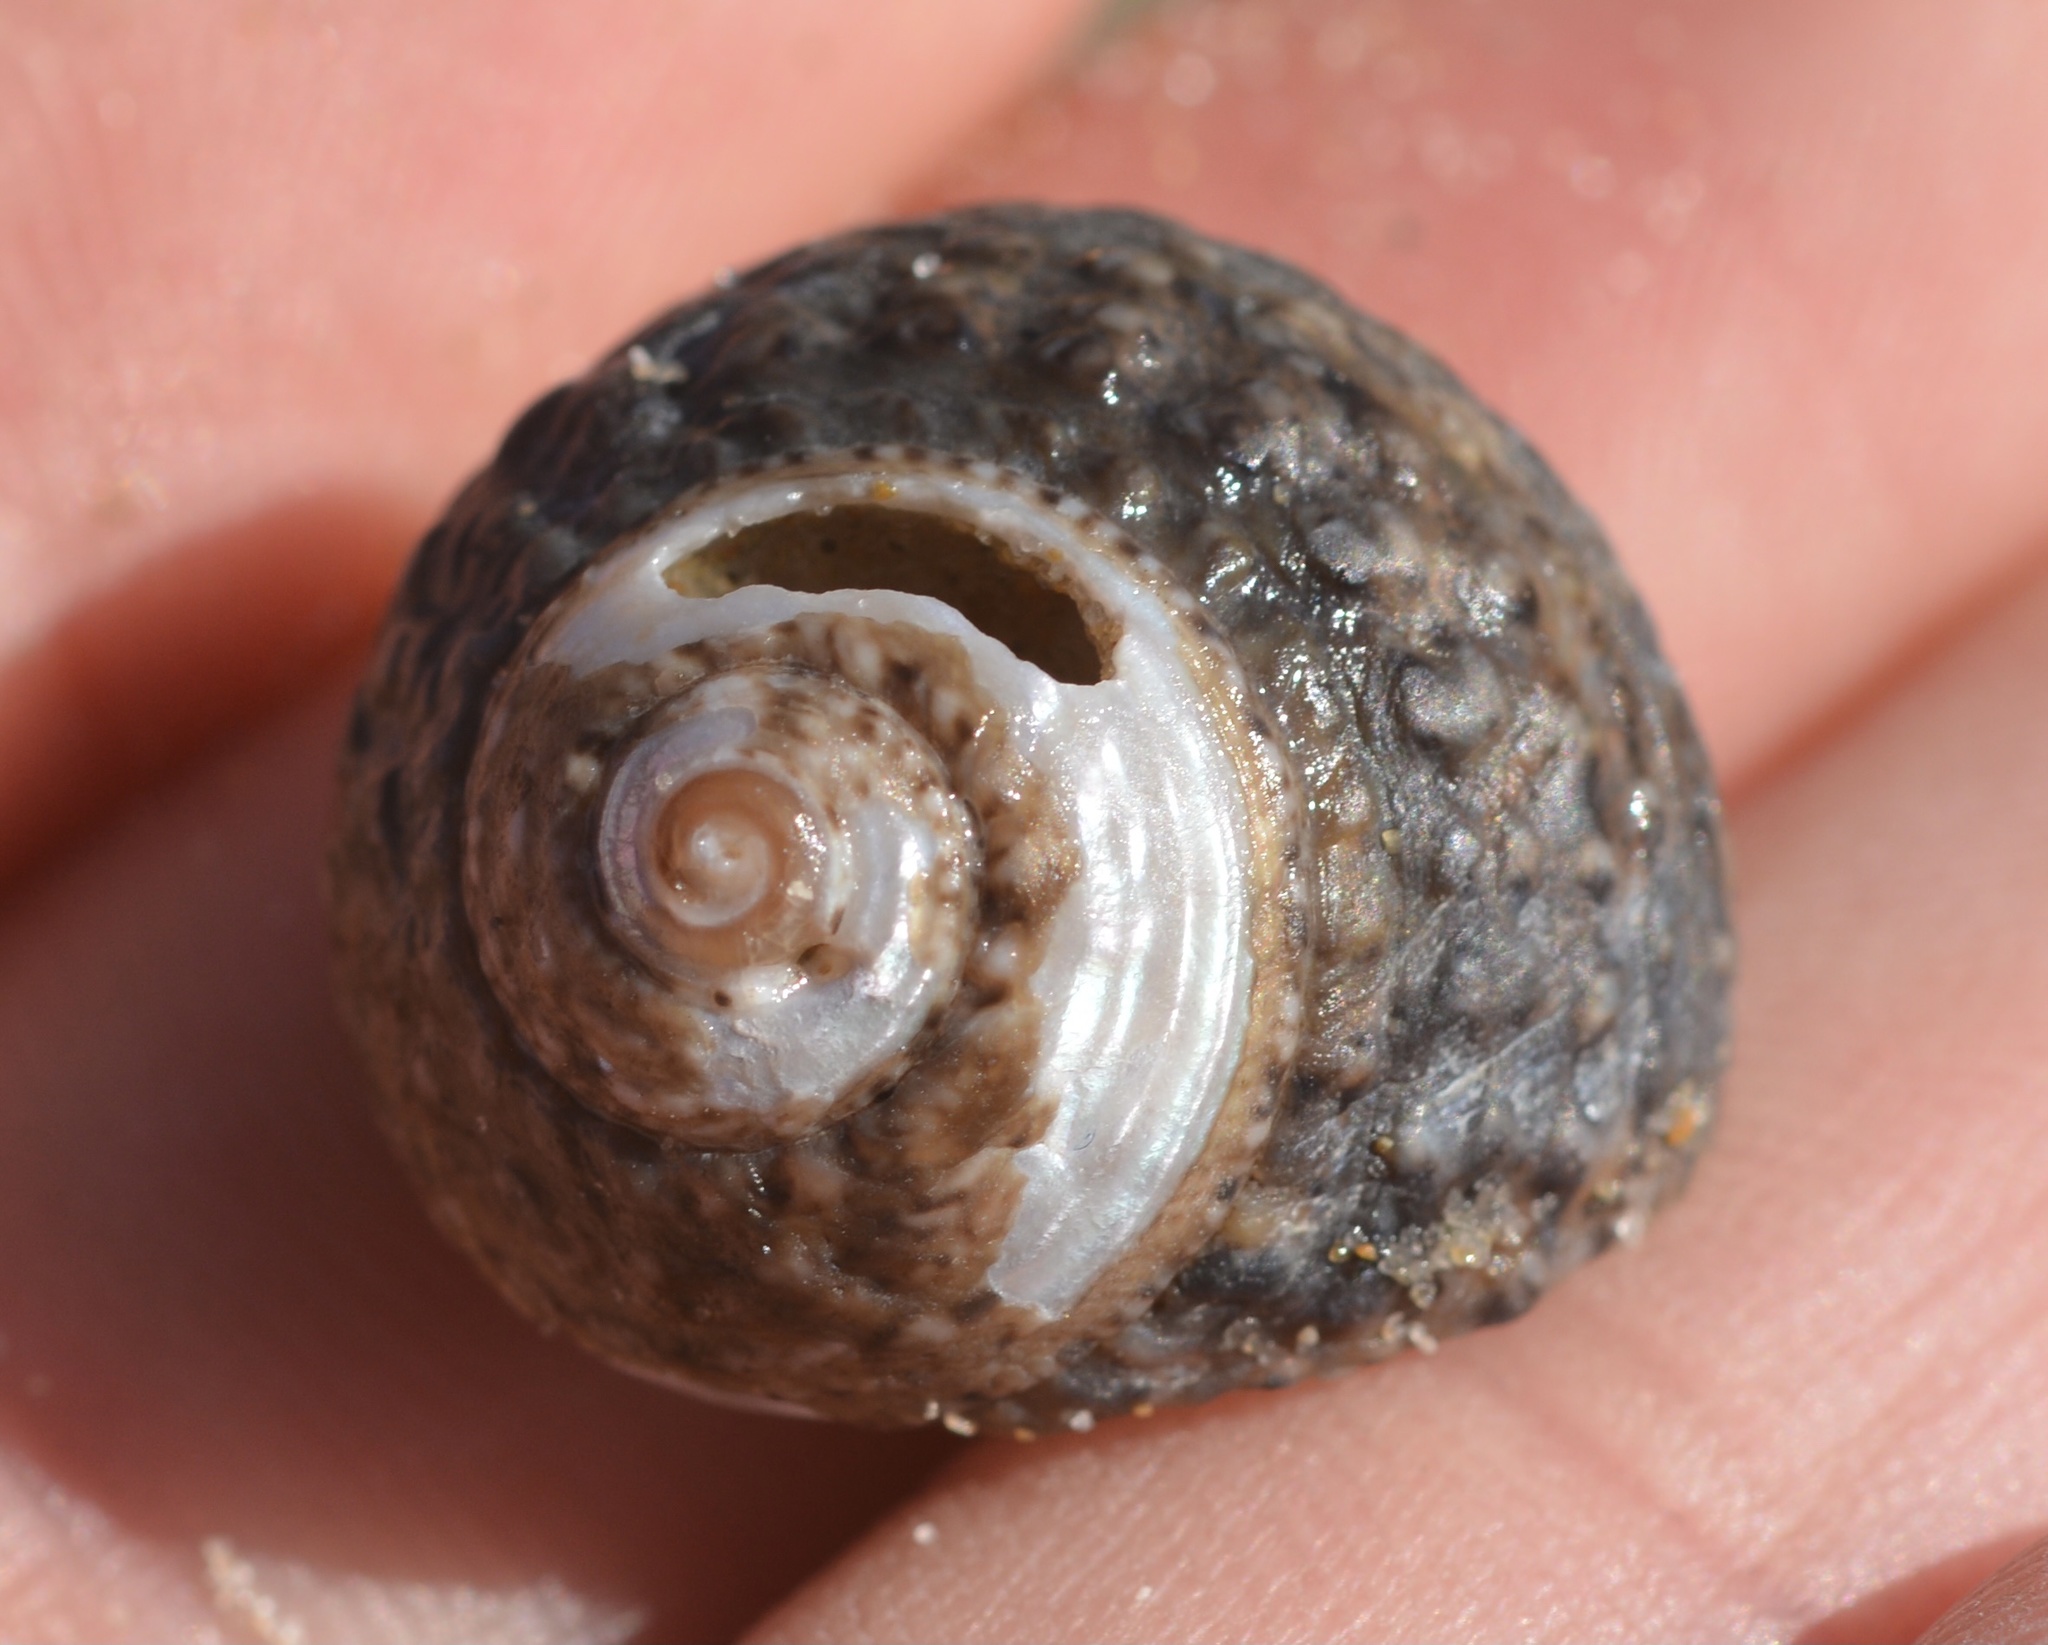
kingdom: Animalia
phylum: Mollusca
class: Gastropoda
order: Trochida
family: Tegulidae
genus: Tegula
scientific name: Tegula eiseni
